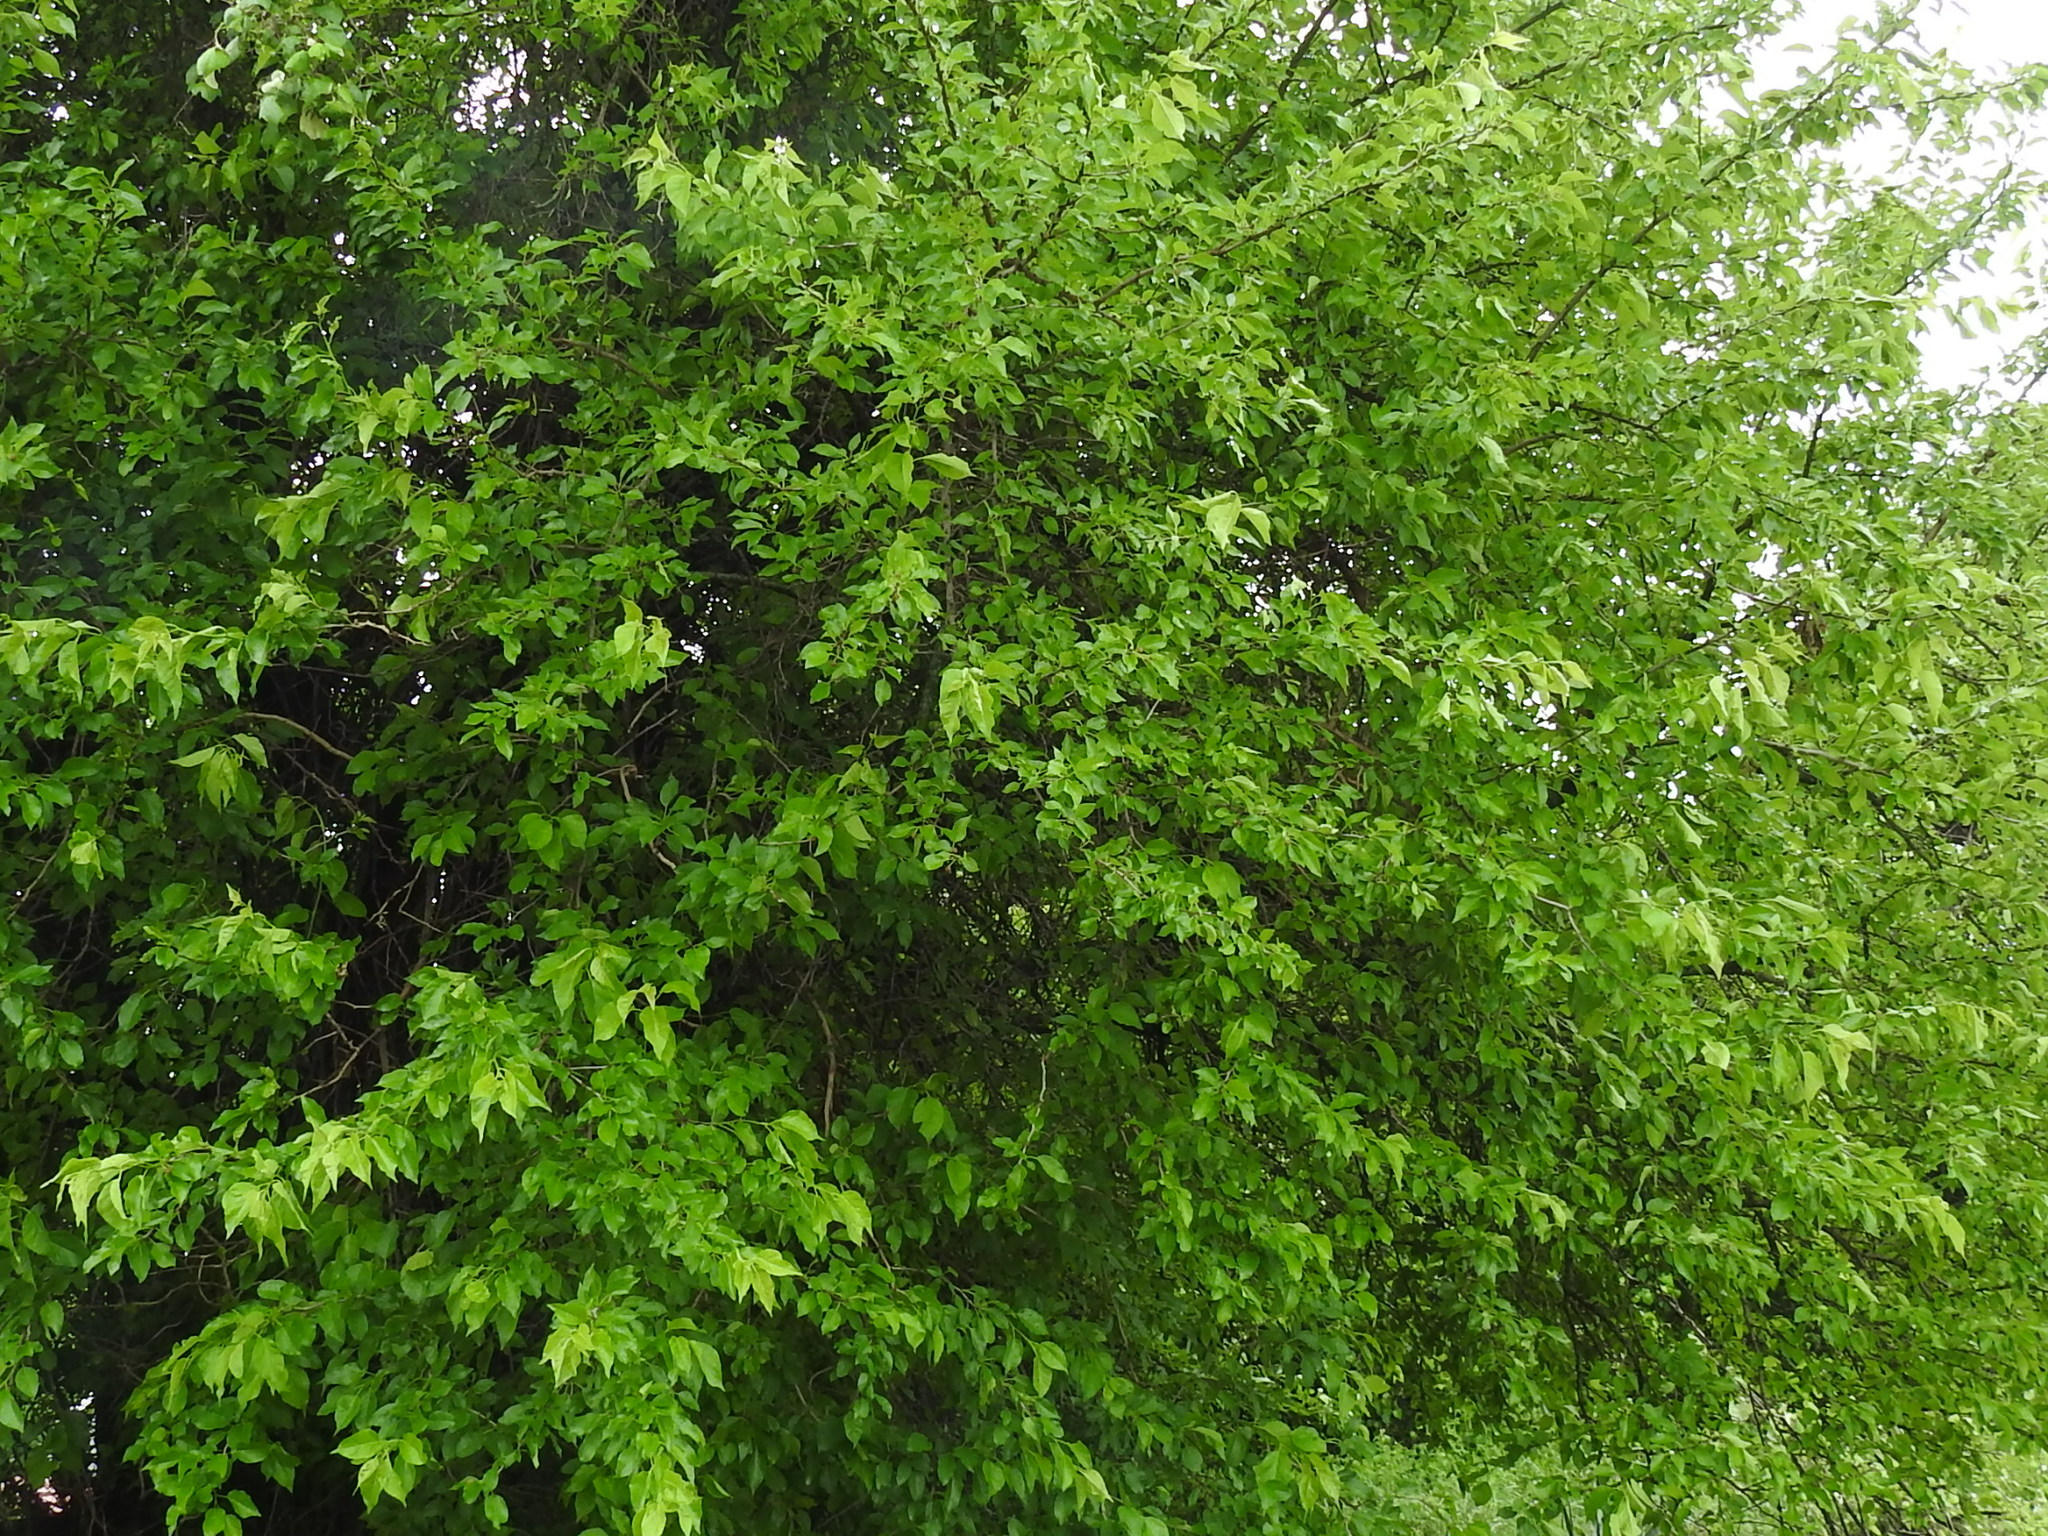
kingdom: Plantae
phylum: Tracheophyta
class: Magnoliopsida
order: Rosales
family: Moraceae
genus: Maclura
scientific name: Maclura pomifera
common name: Osage-orange
